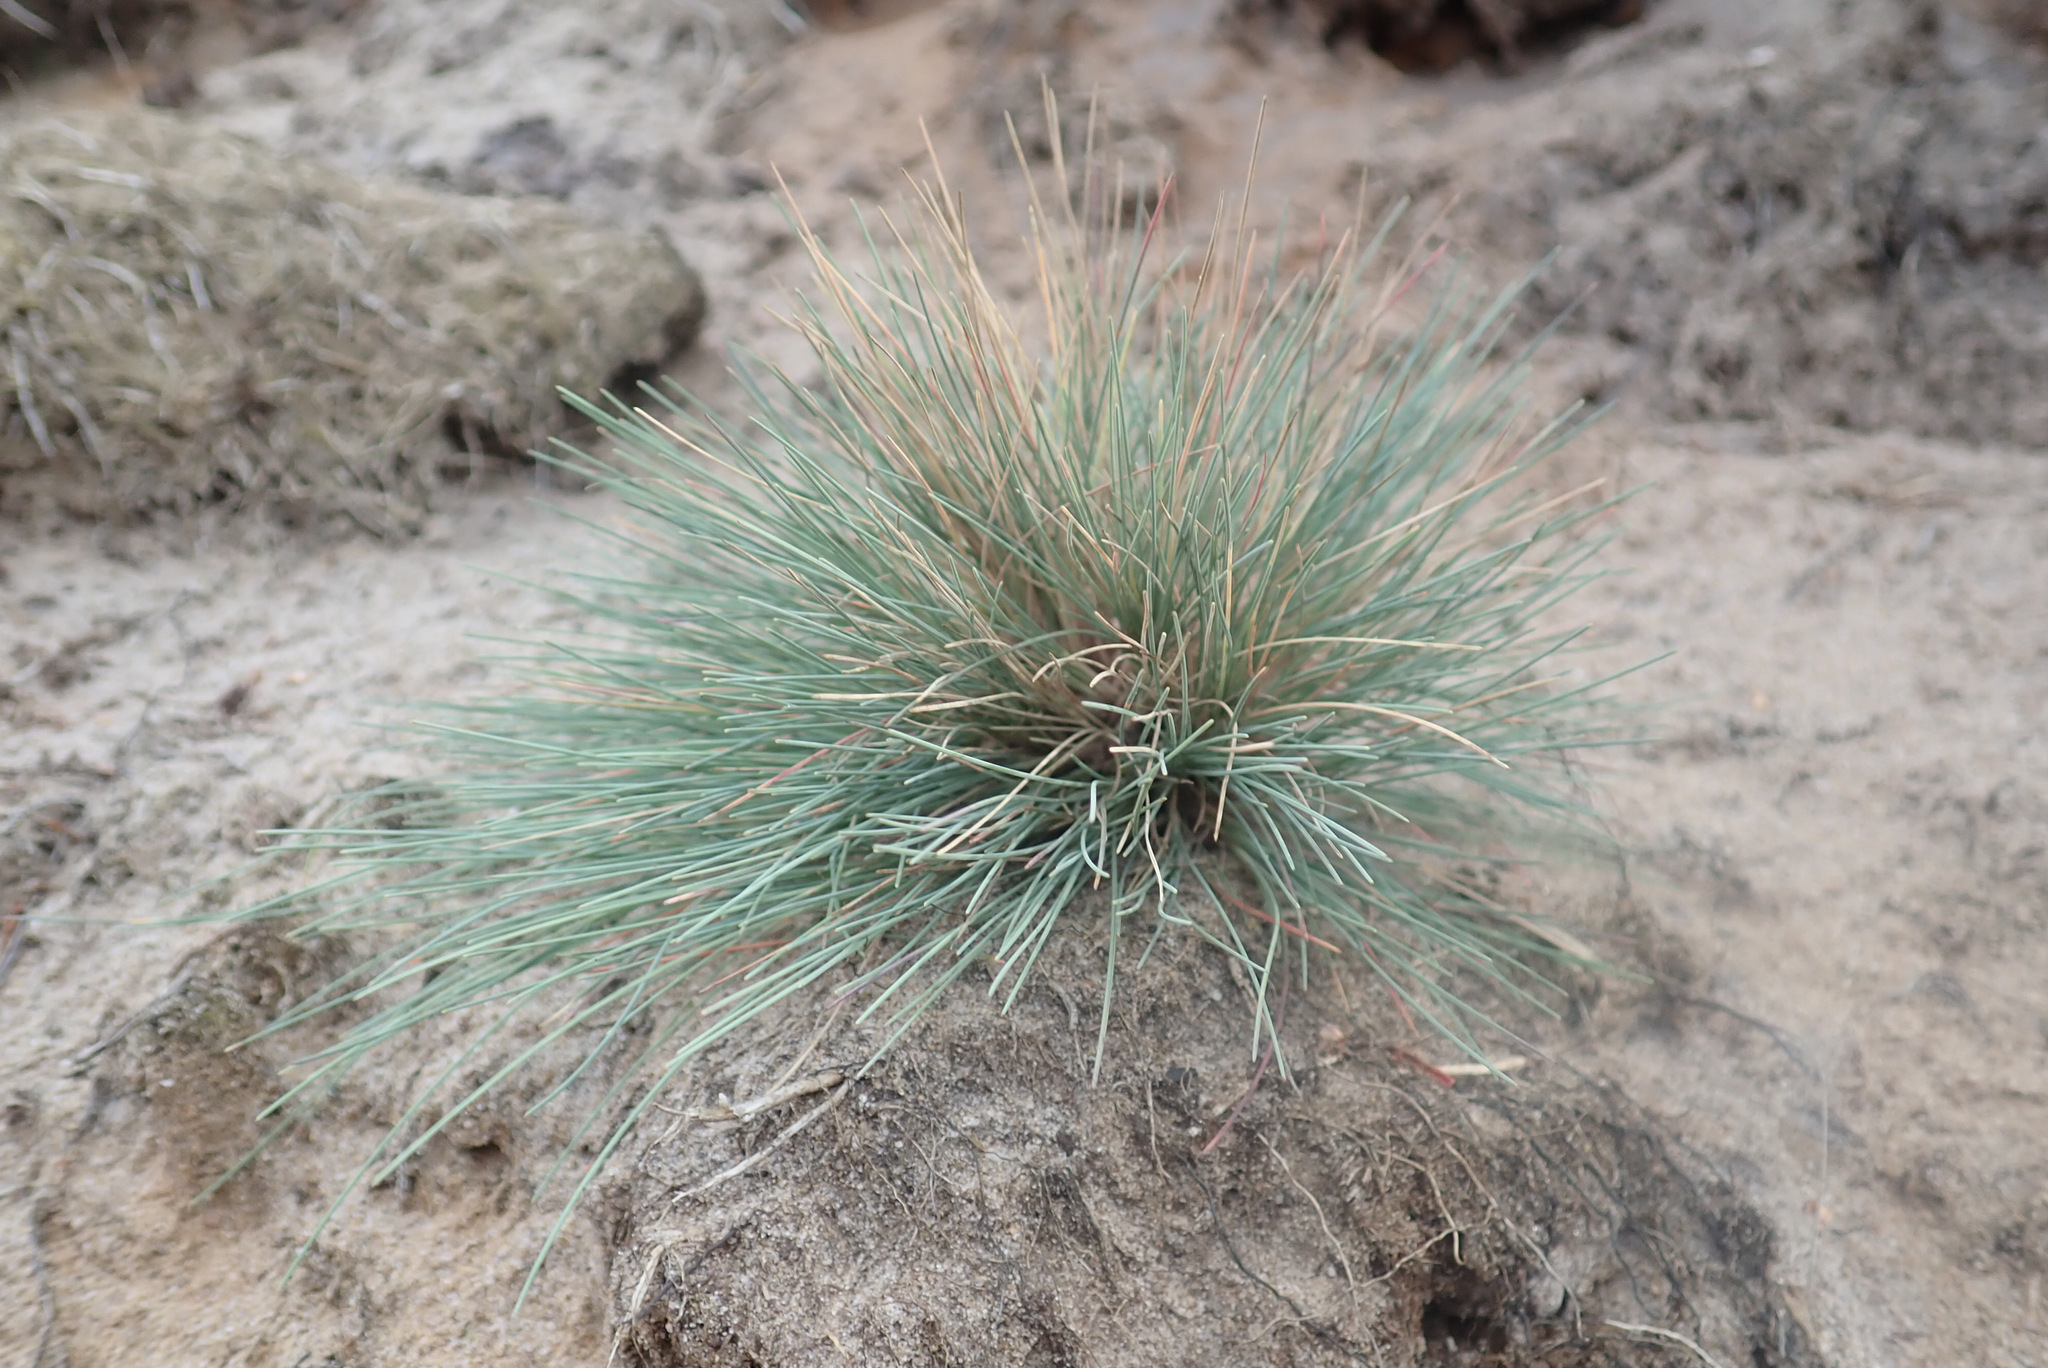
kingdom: Plantae
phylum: Tracheophyta
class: Liliopsida
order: Poales
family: Poaceae
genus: Corynephorus
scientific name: Corynephorus canescens
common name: Grey hair-grass
